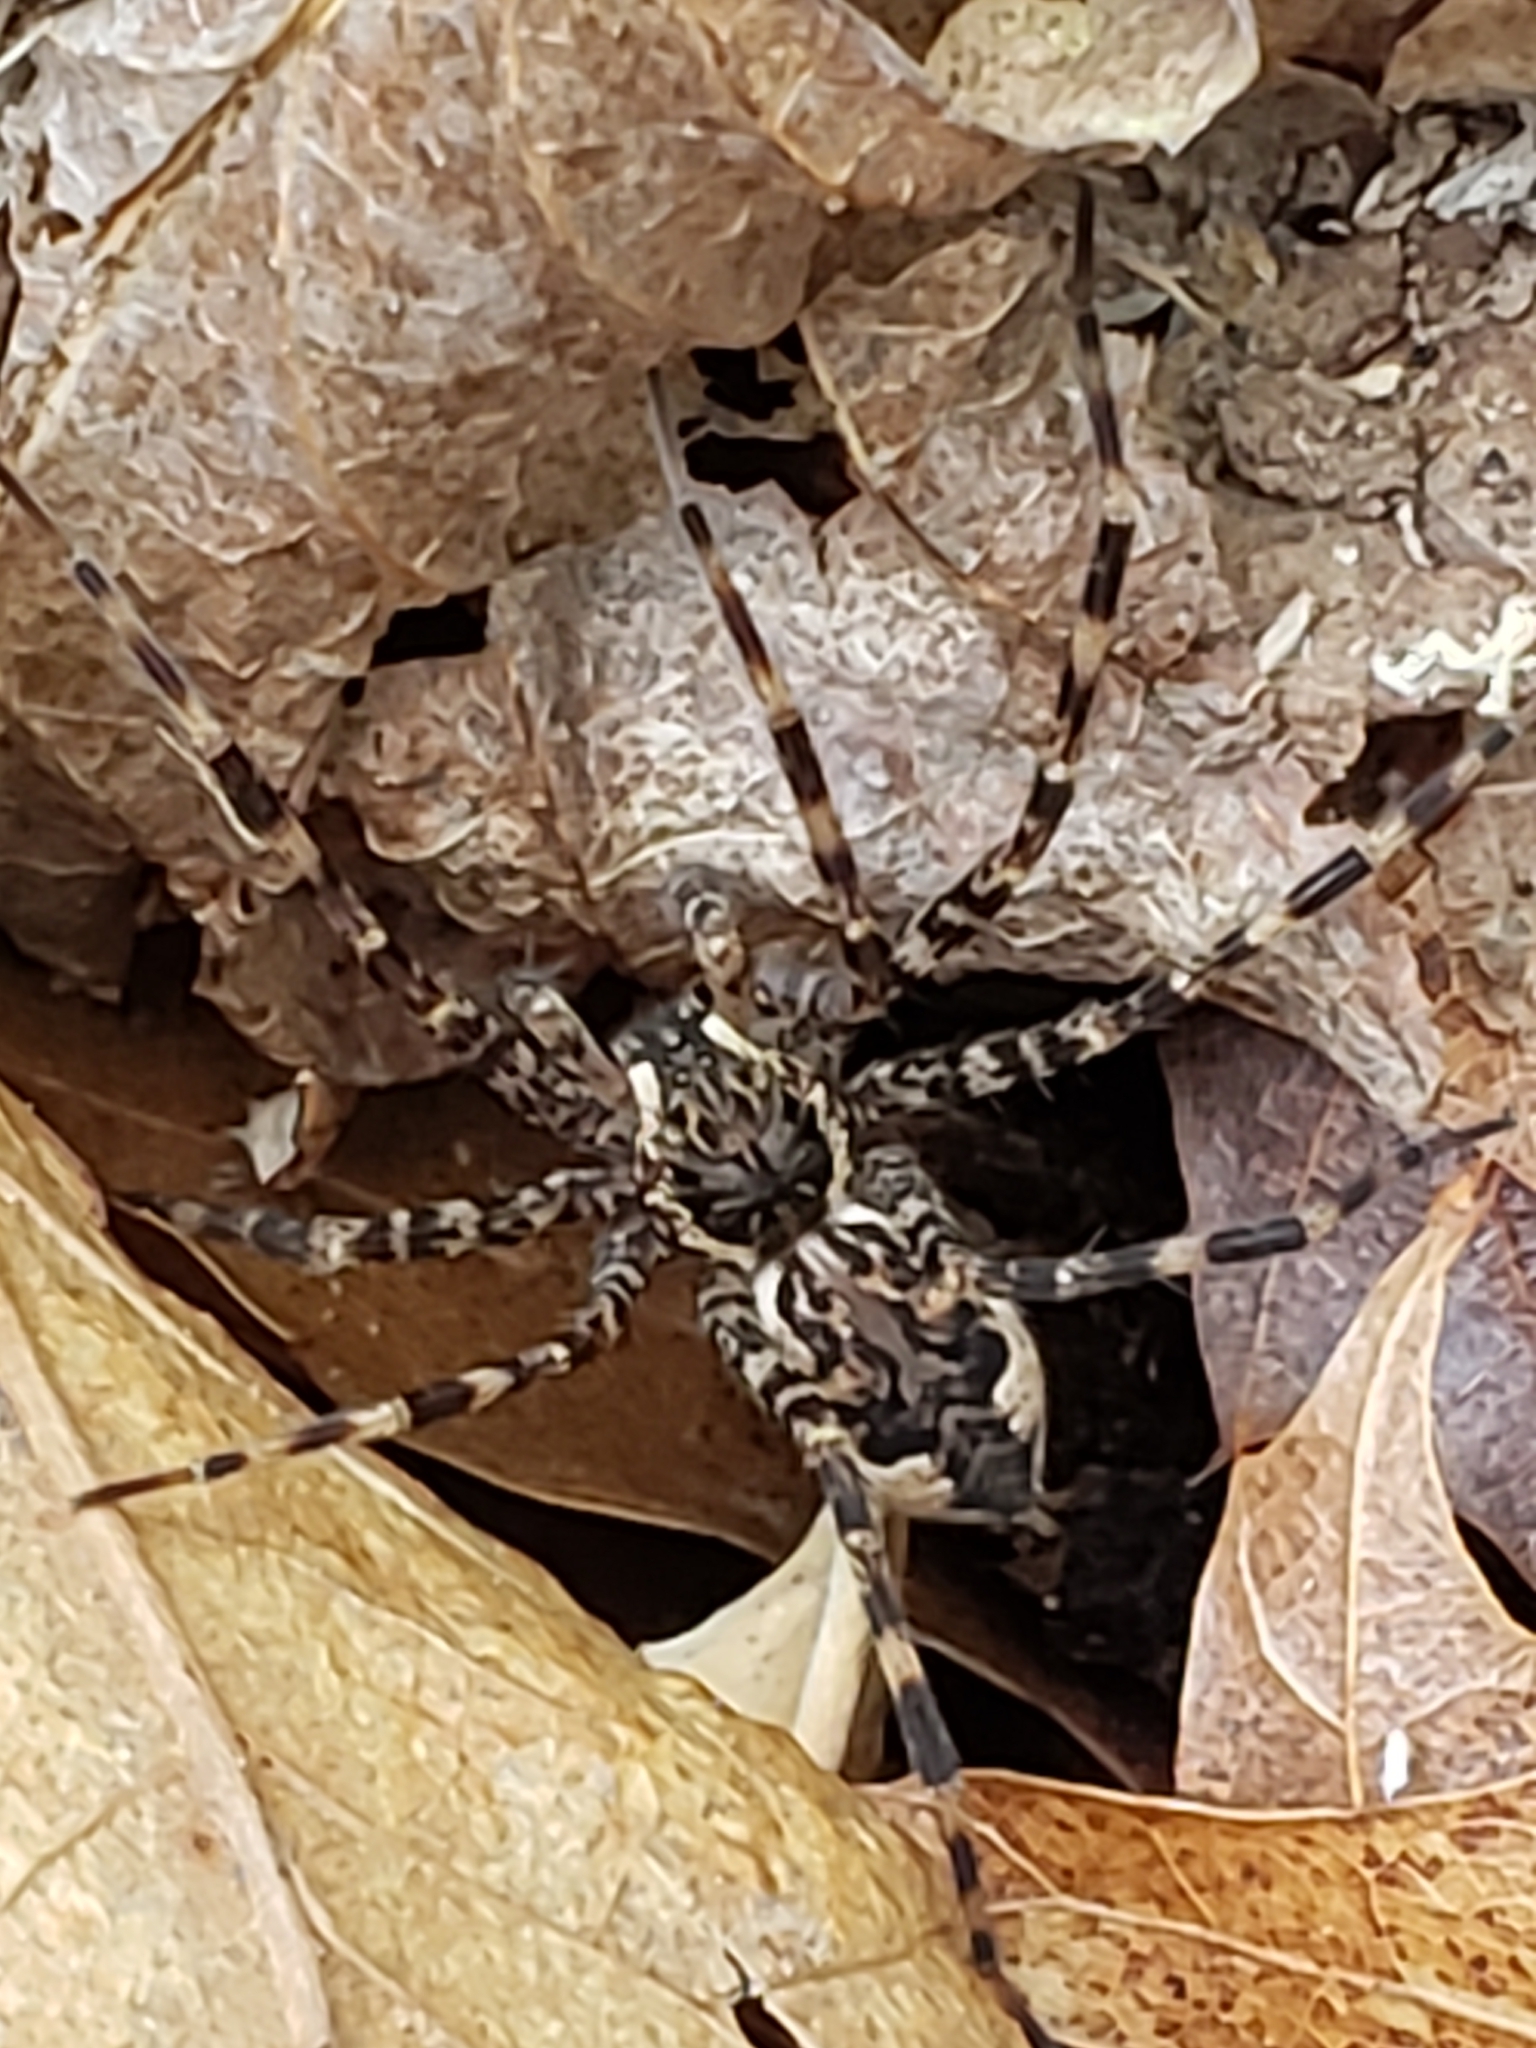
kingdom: Animalia
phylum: Arthropoda
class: Arachnida
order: Araneae
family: Pisauridae
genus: Dolomedes
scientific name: Dolomedes tenebrosus
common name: Dark fishing spider
